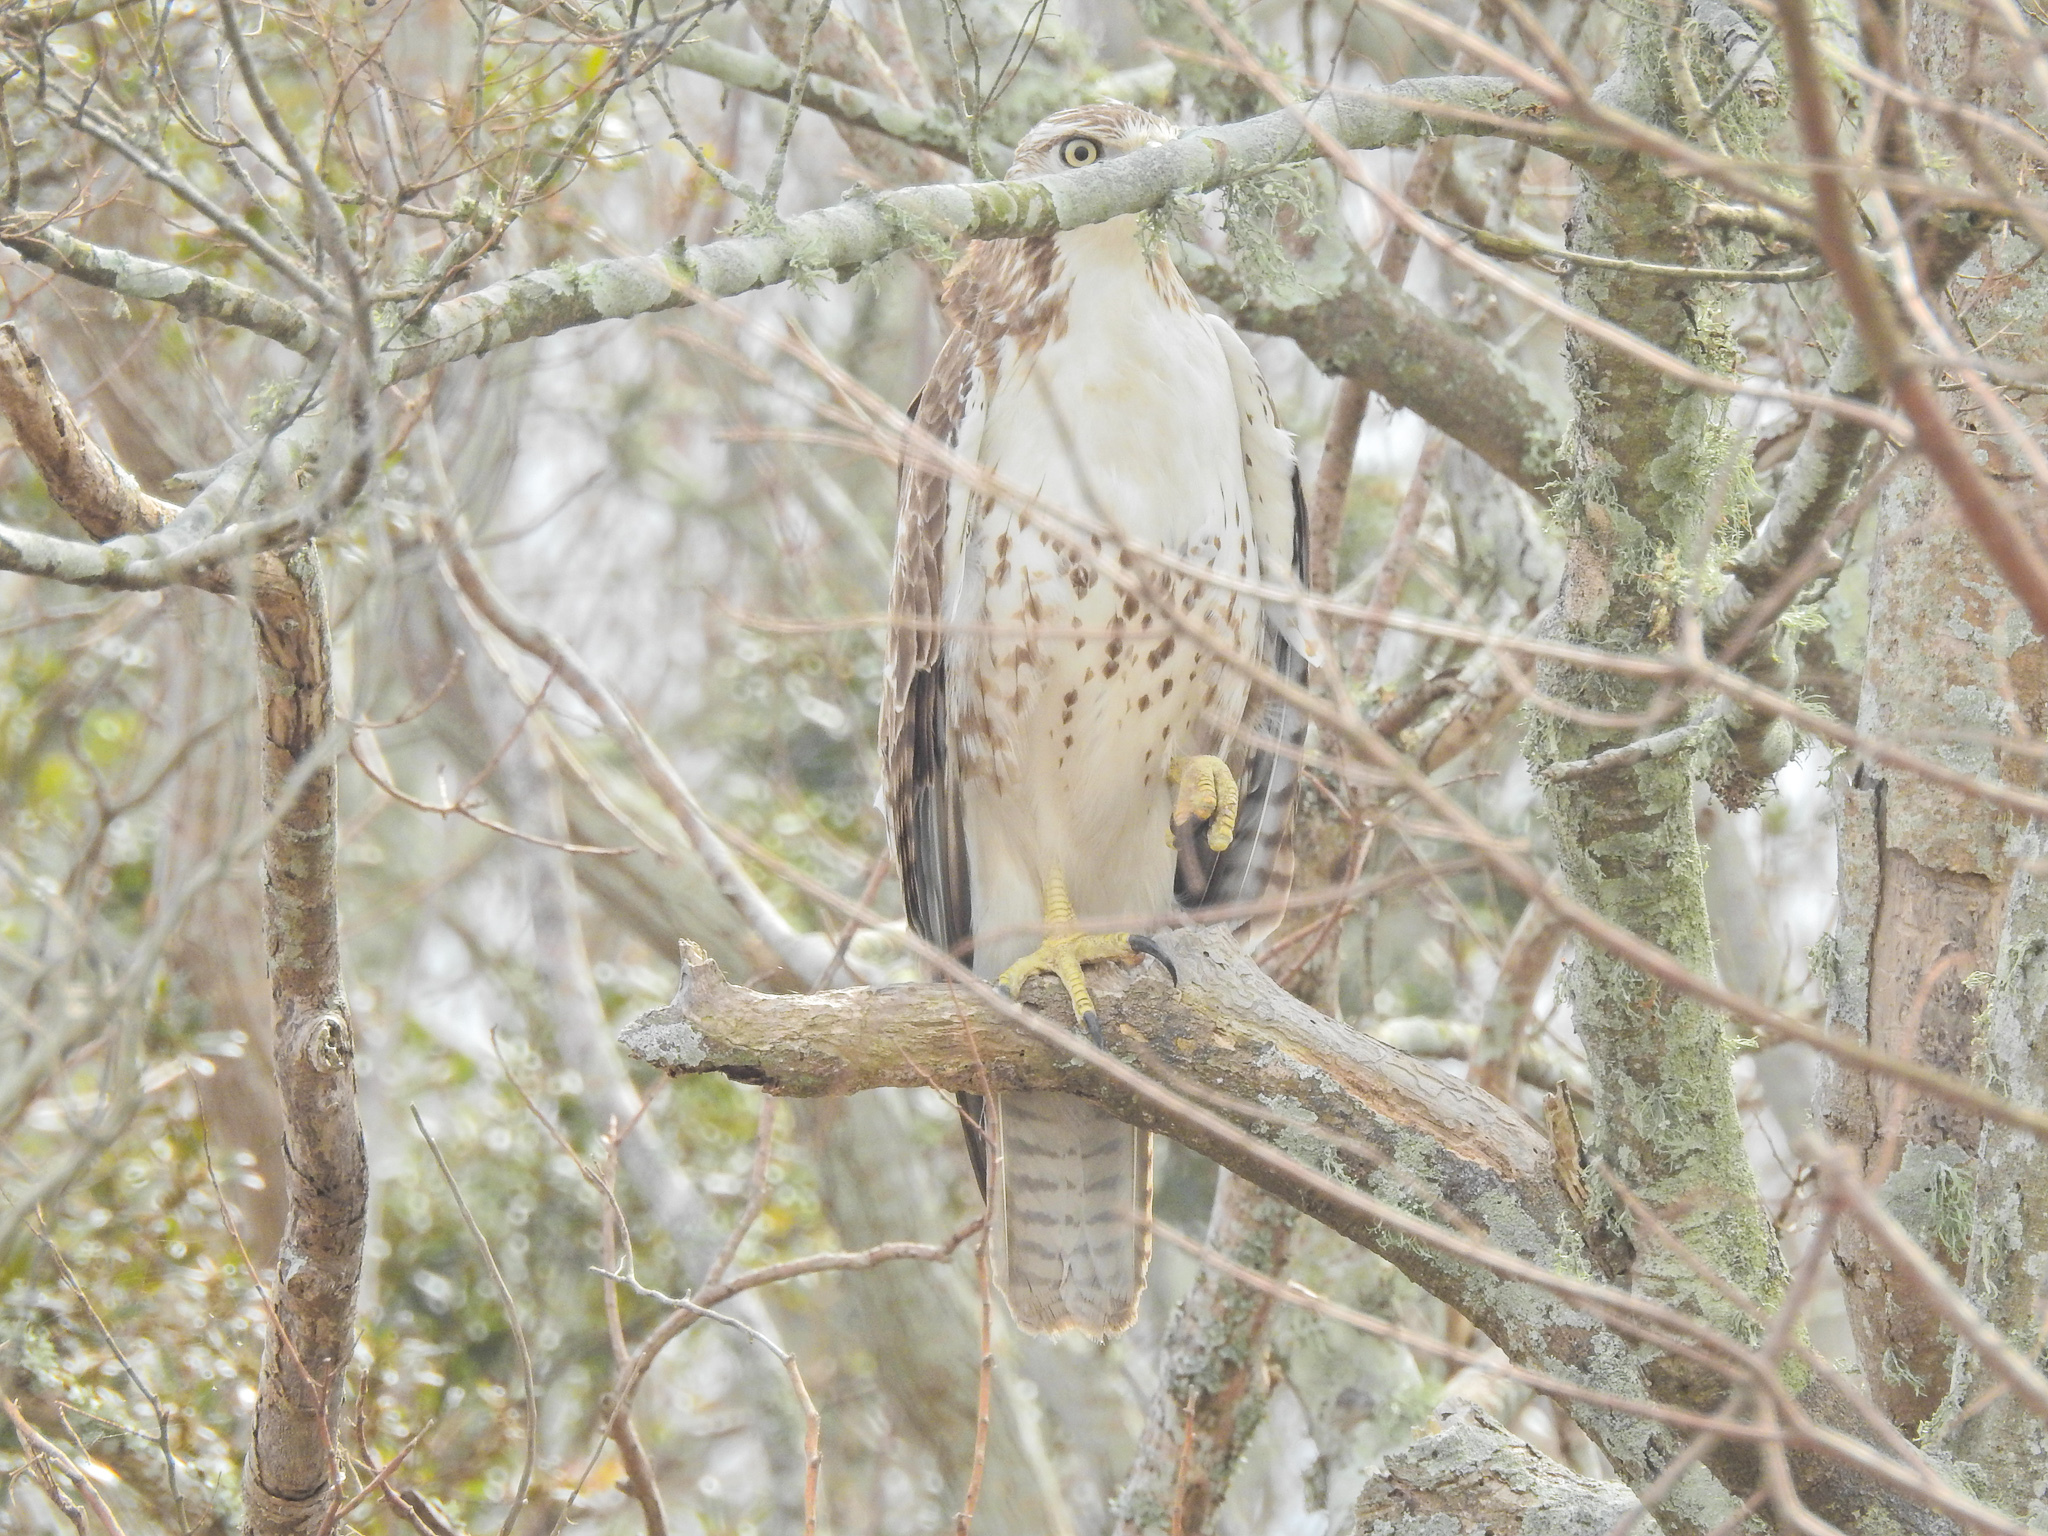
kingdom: Animalia
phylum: Chordata
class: Aves
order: Accipitriformes
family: Accipitridae
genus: Buteo
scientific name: Buteo jamaicensis
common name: Red-tailed hawk
